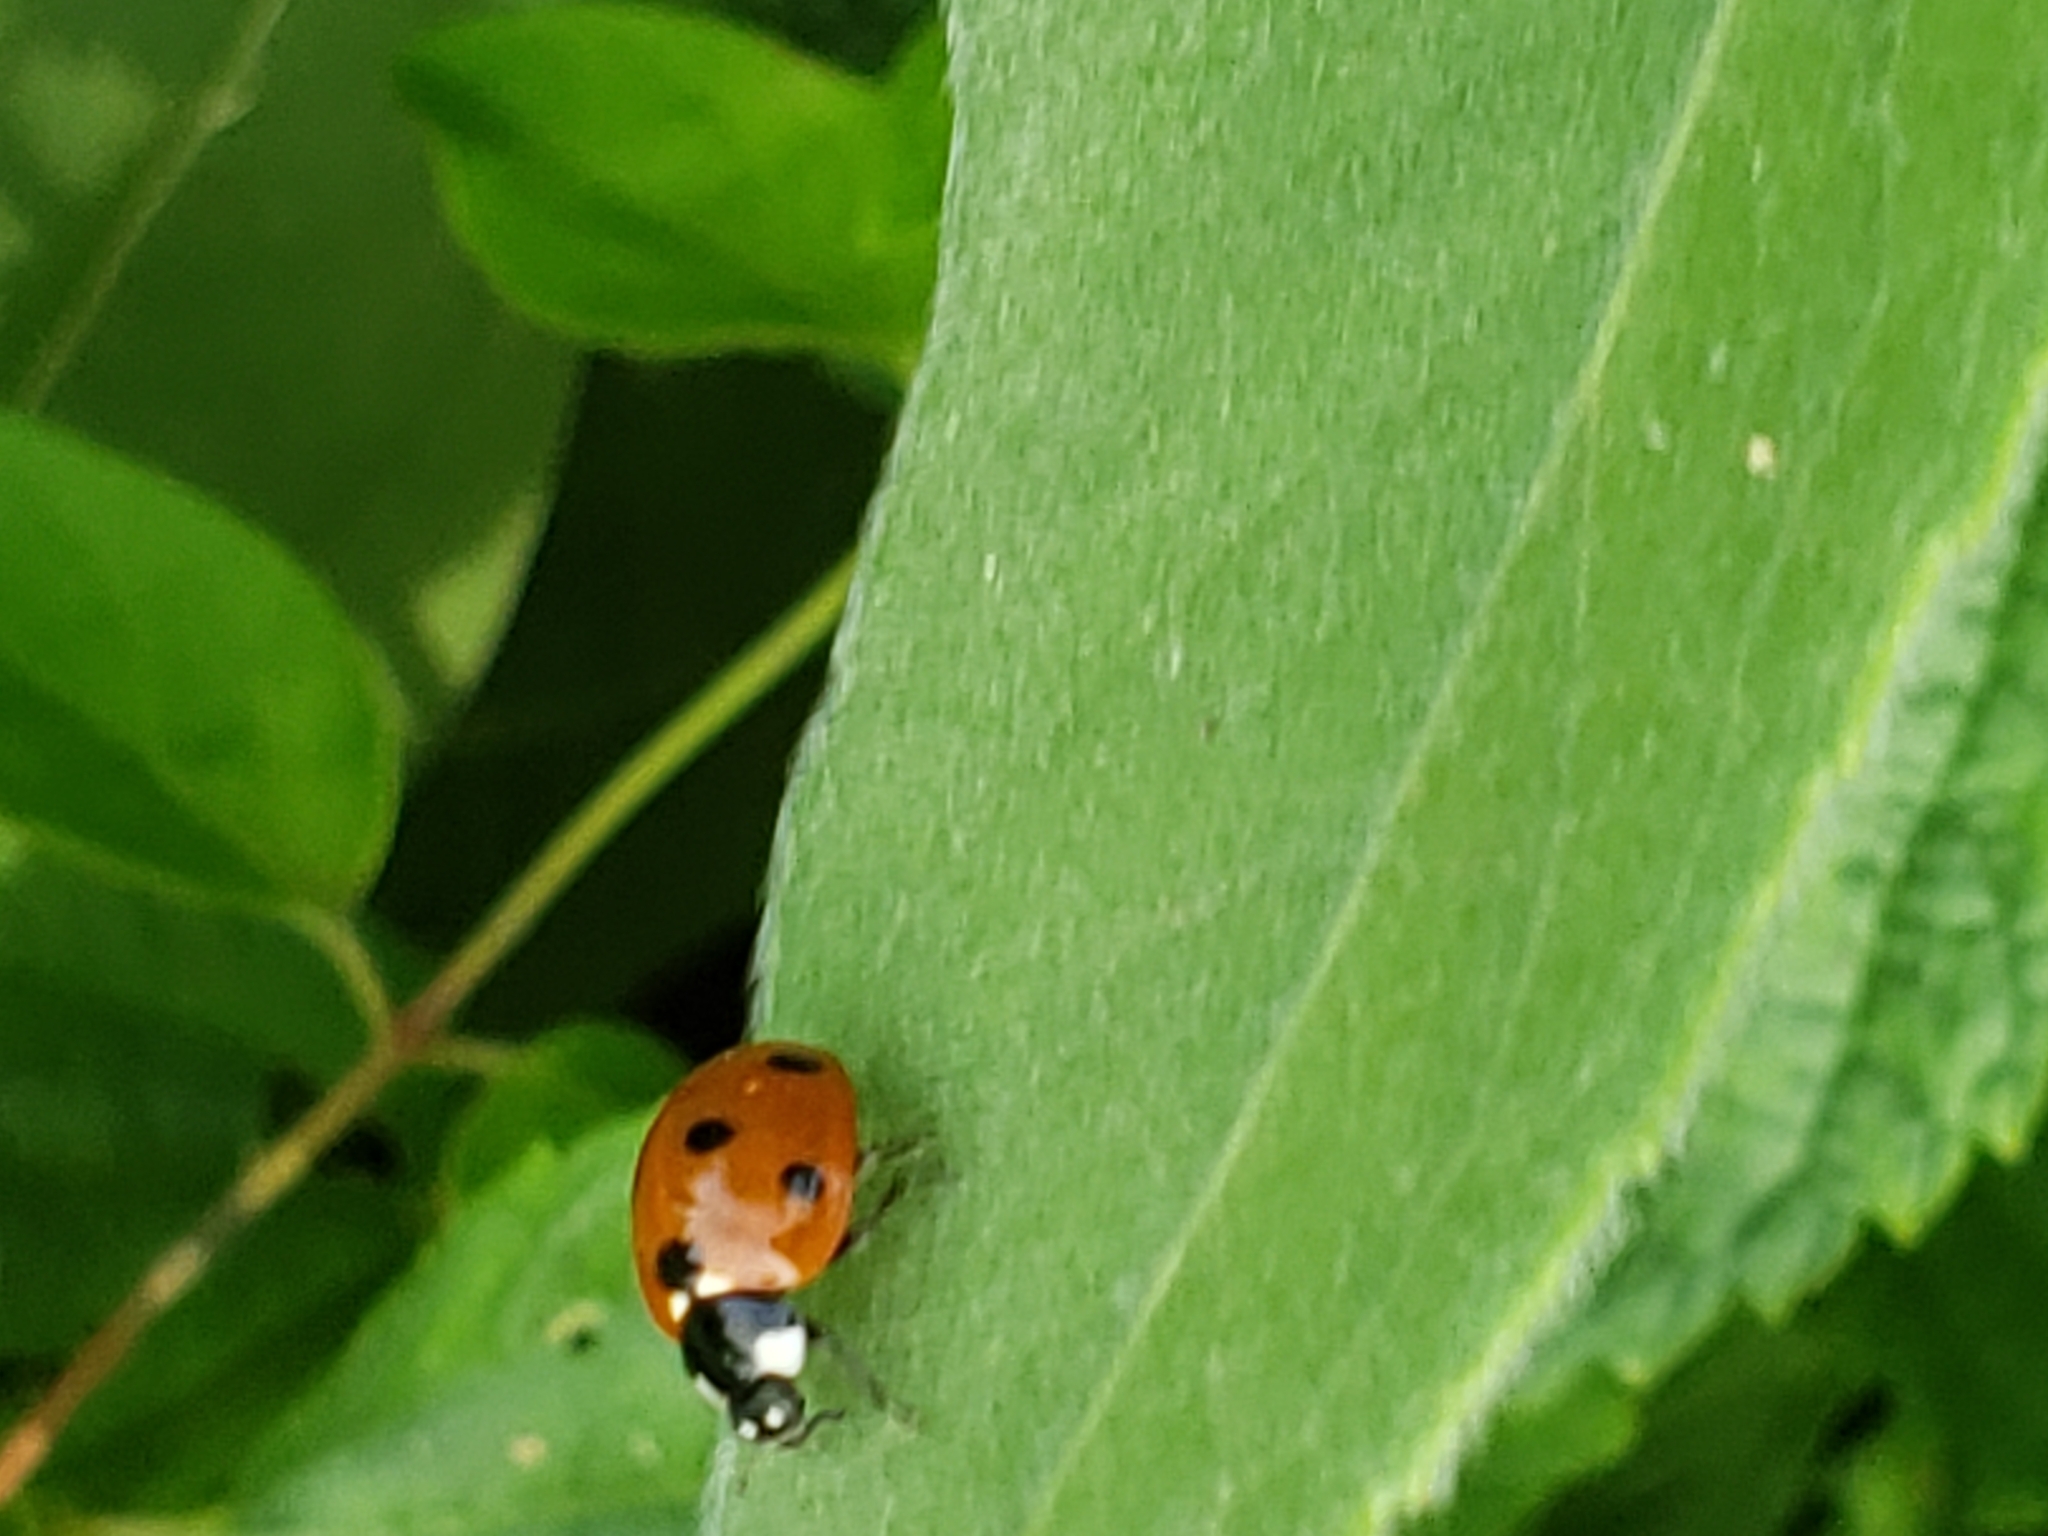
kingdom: Animalia
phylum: Arthropoda
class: Insecta
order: Coleoptera
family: Coccinellidae
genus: Coccinella
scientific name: Coccinella septempunctata
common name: Sevenspotted lady beetle
